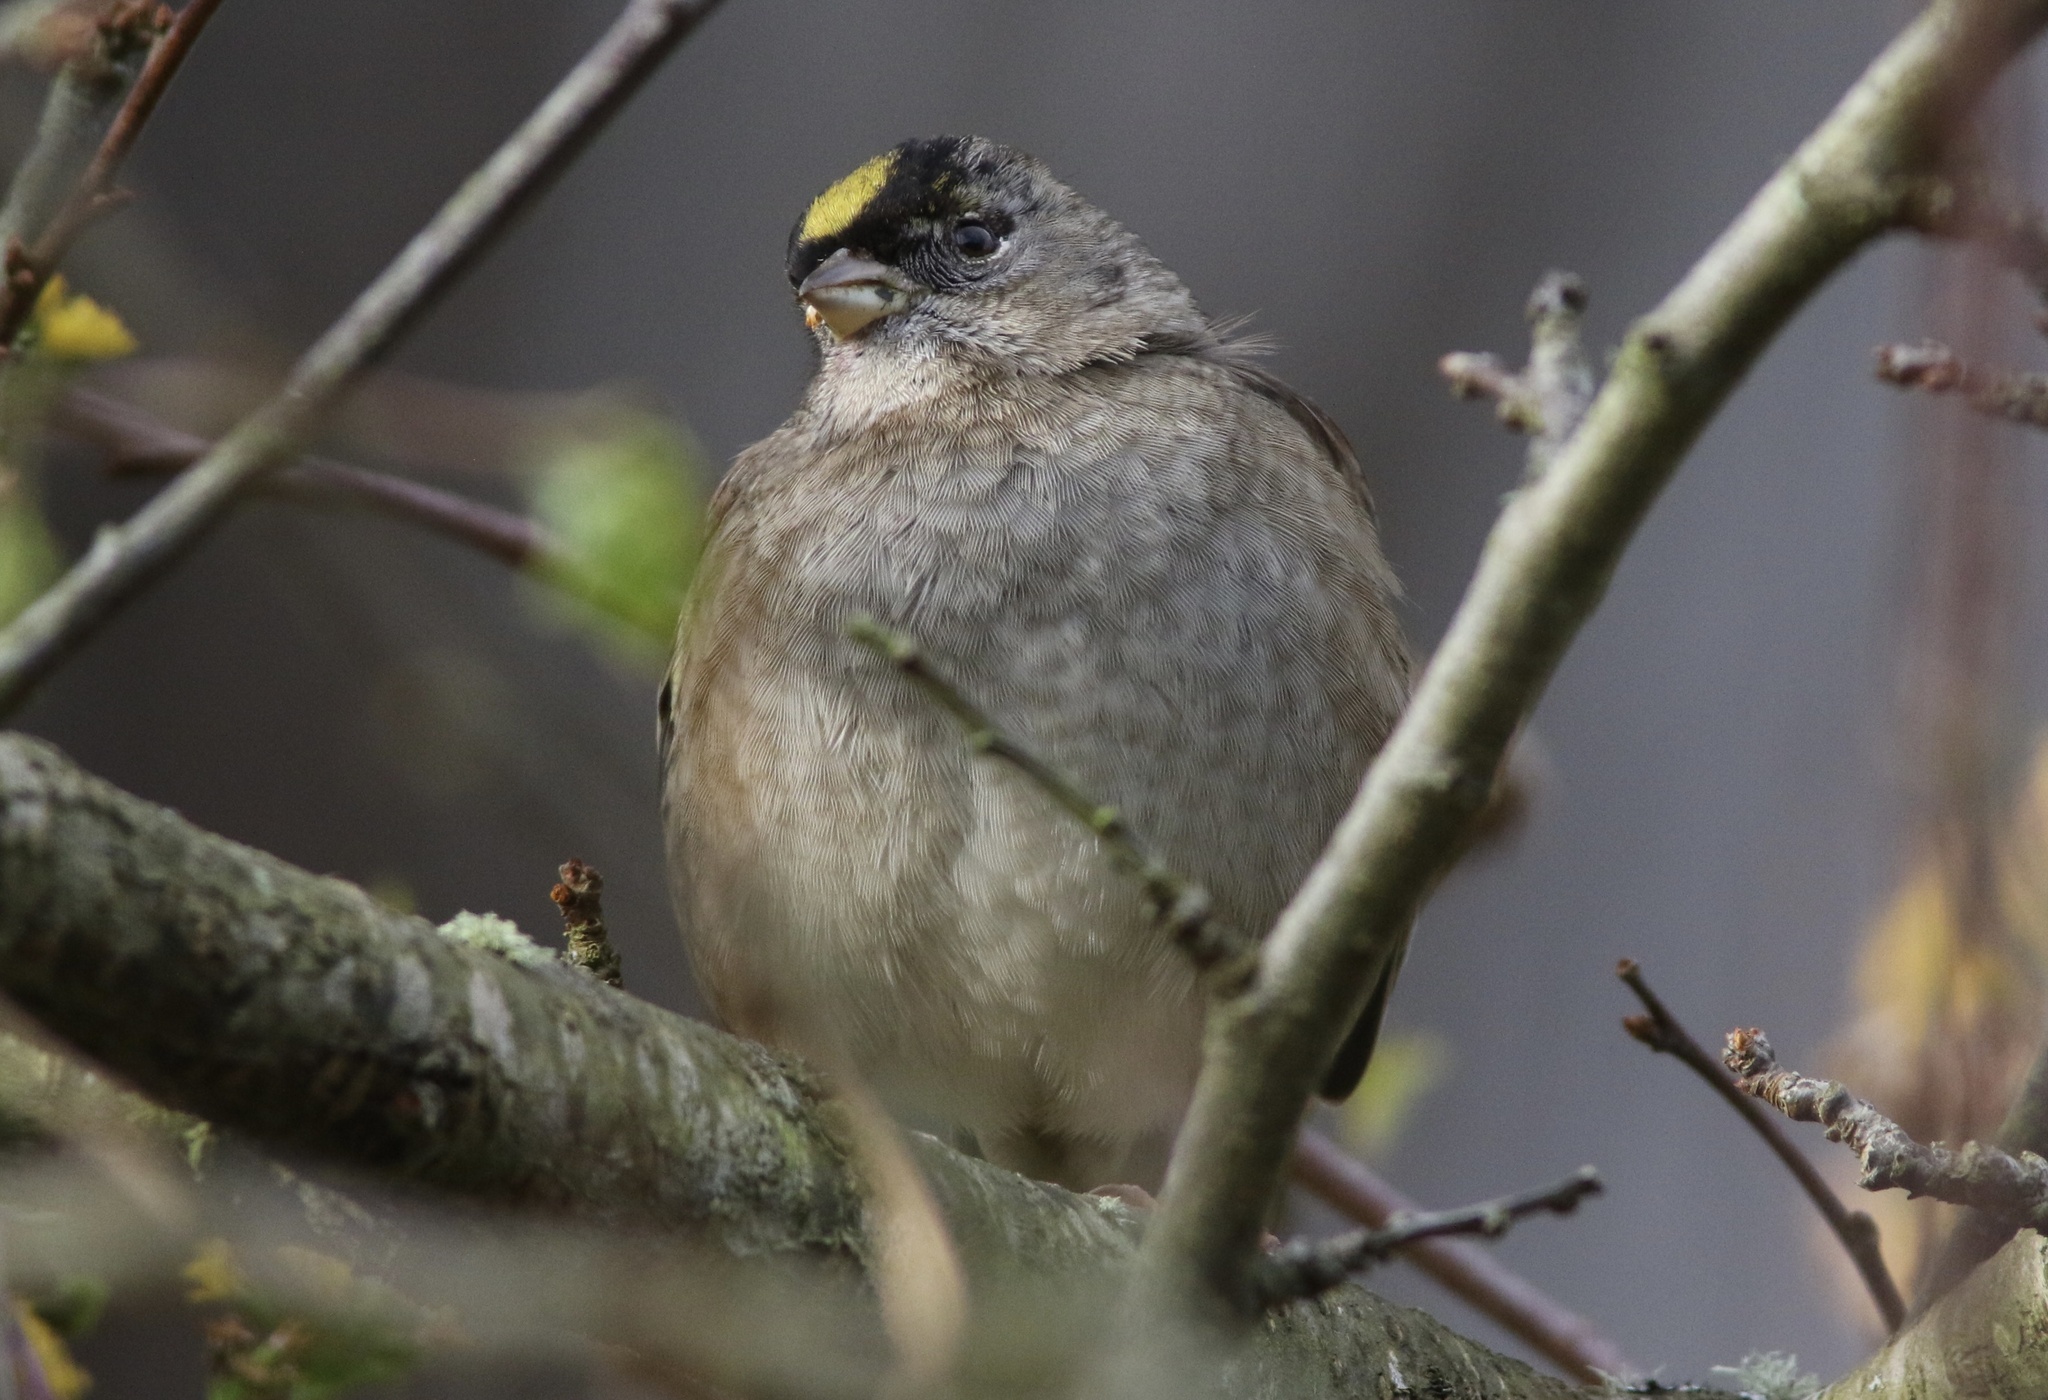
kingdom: Animalia
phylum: Chordata
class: Aves
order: Passeriformes
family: Passerellidae
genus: Zonotrichia
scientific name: Zonotrichia atricapilla
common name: Golden-crowned sparrow
